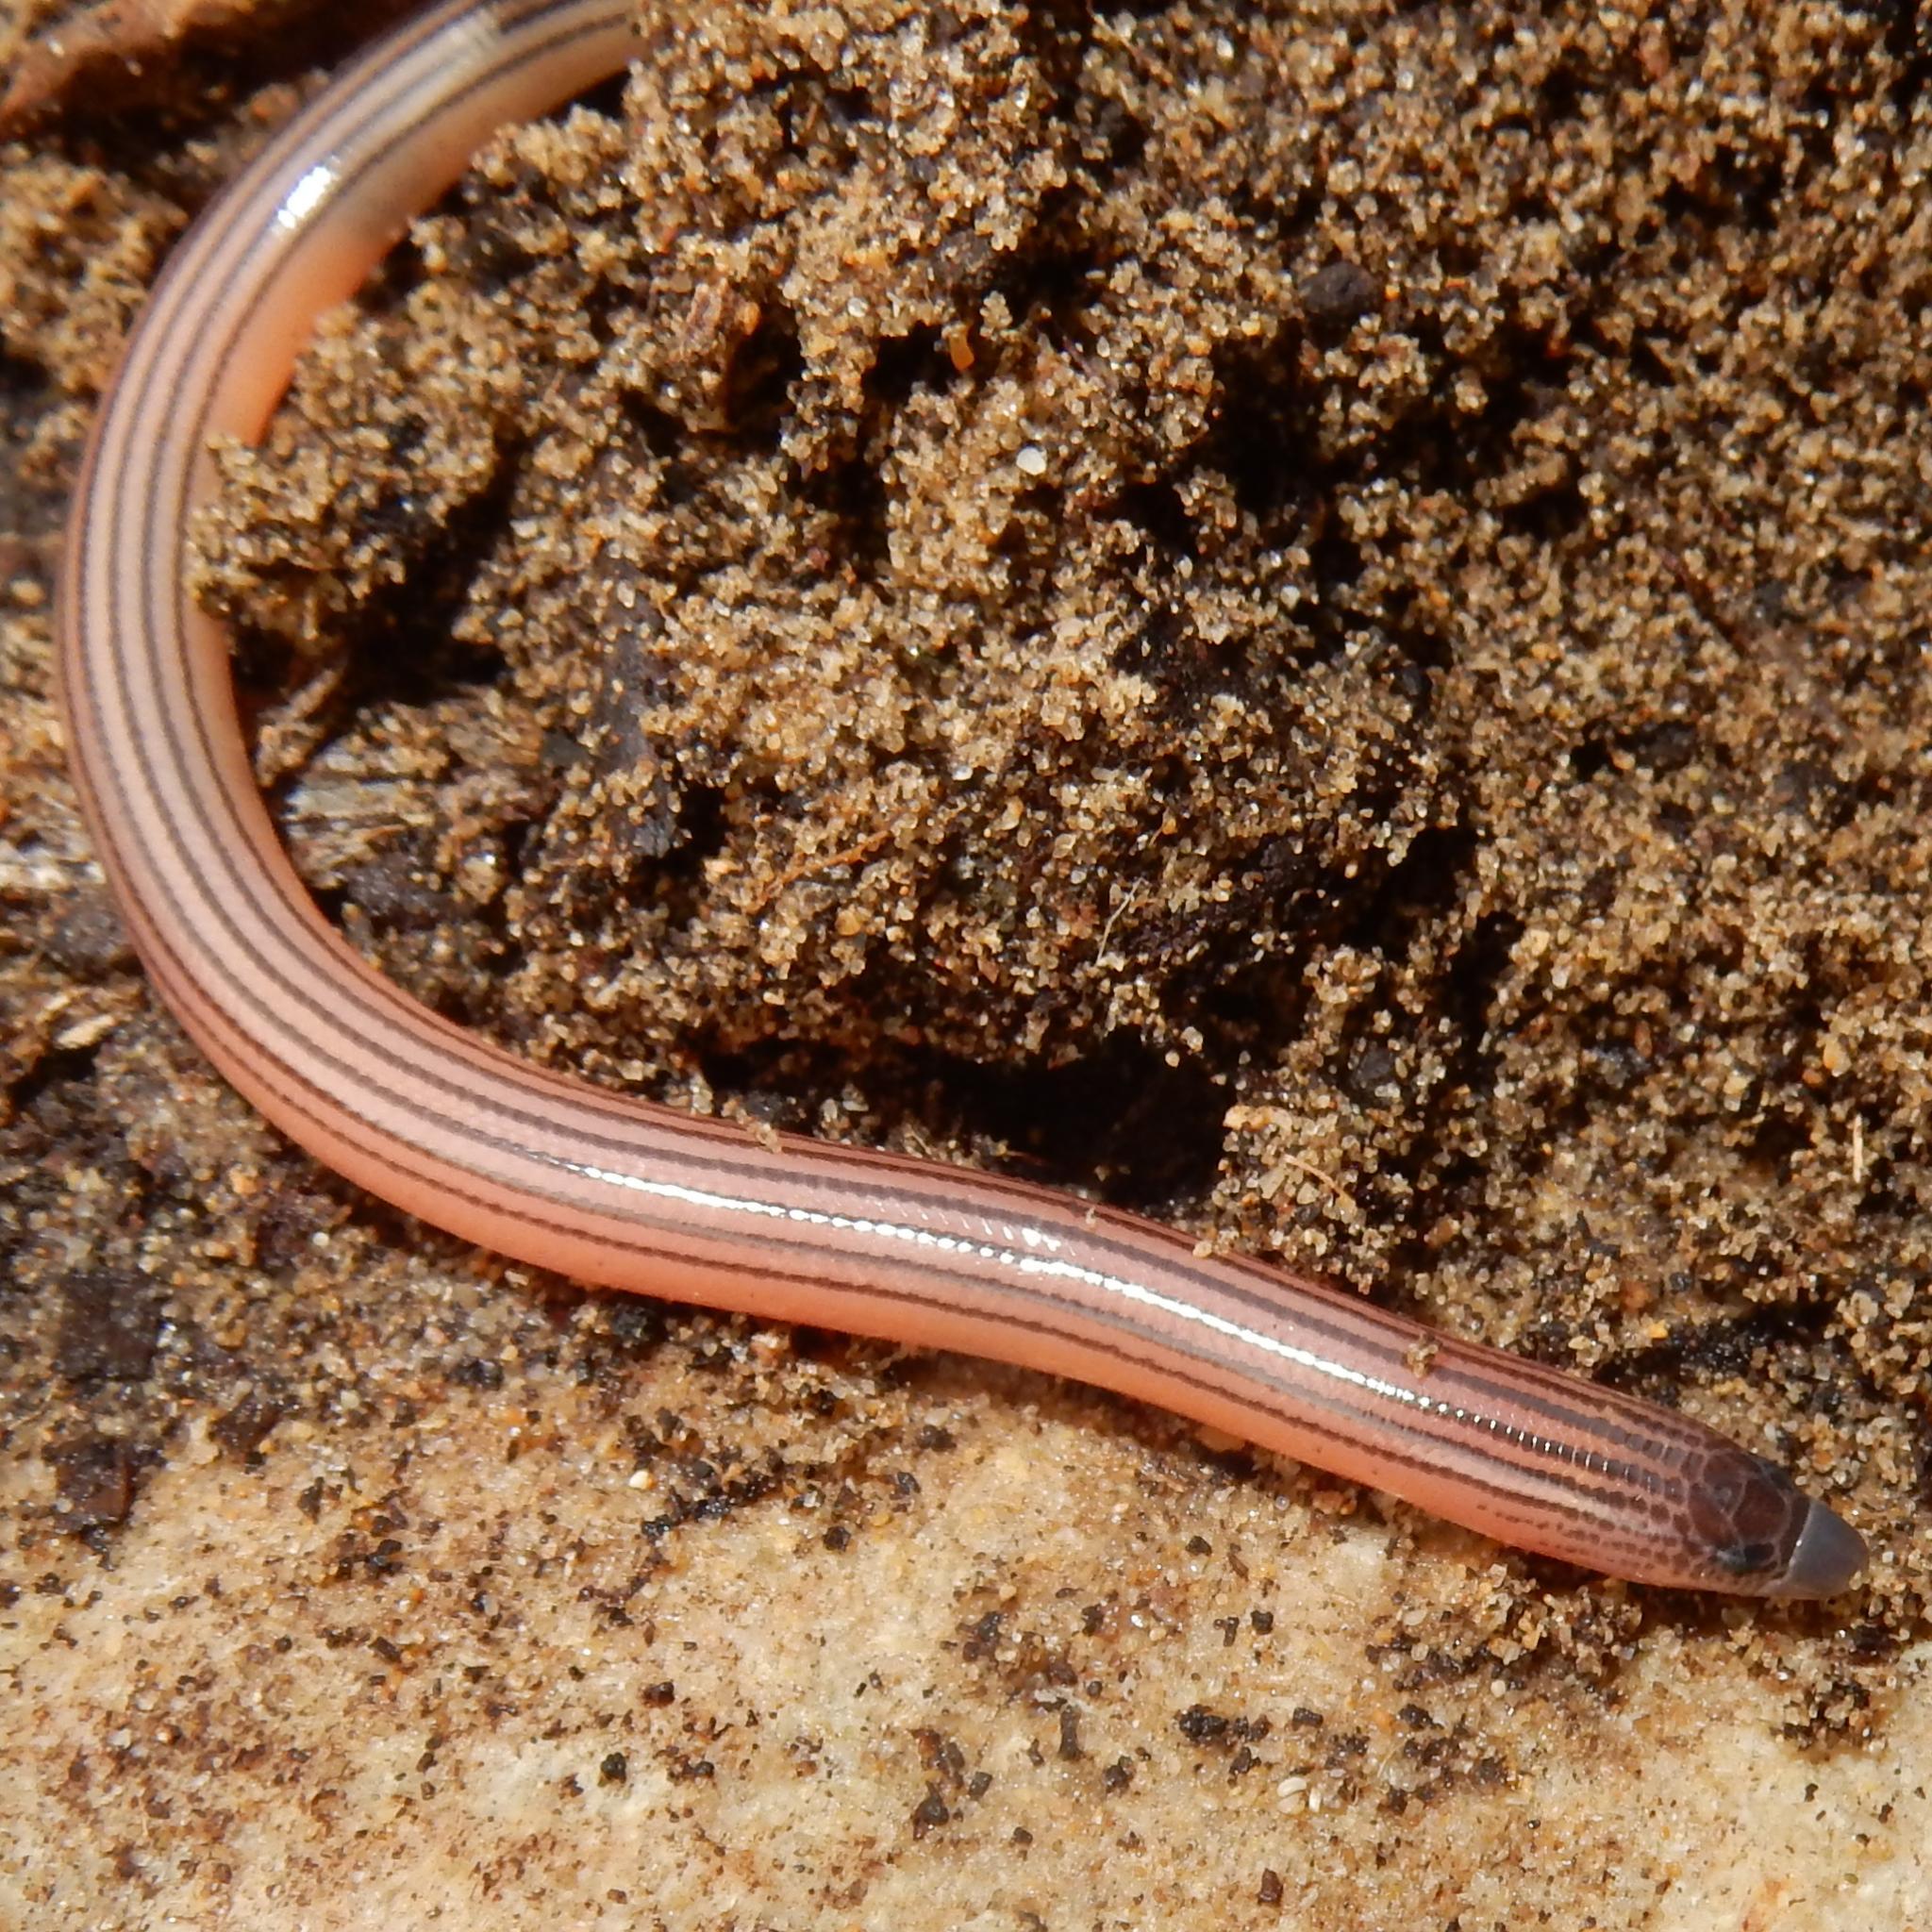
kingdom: Animalia
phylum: Chordata
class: Squamata
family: Scincidae
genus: Acontias
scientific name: Acontias orientalis
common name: Eastern cape legless skink
